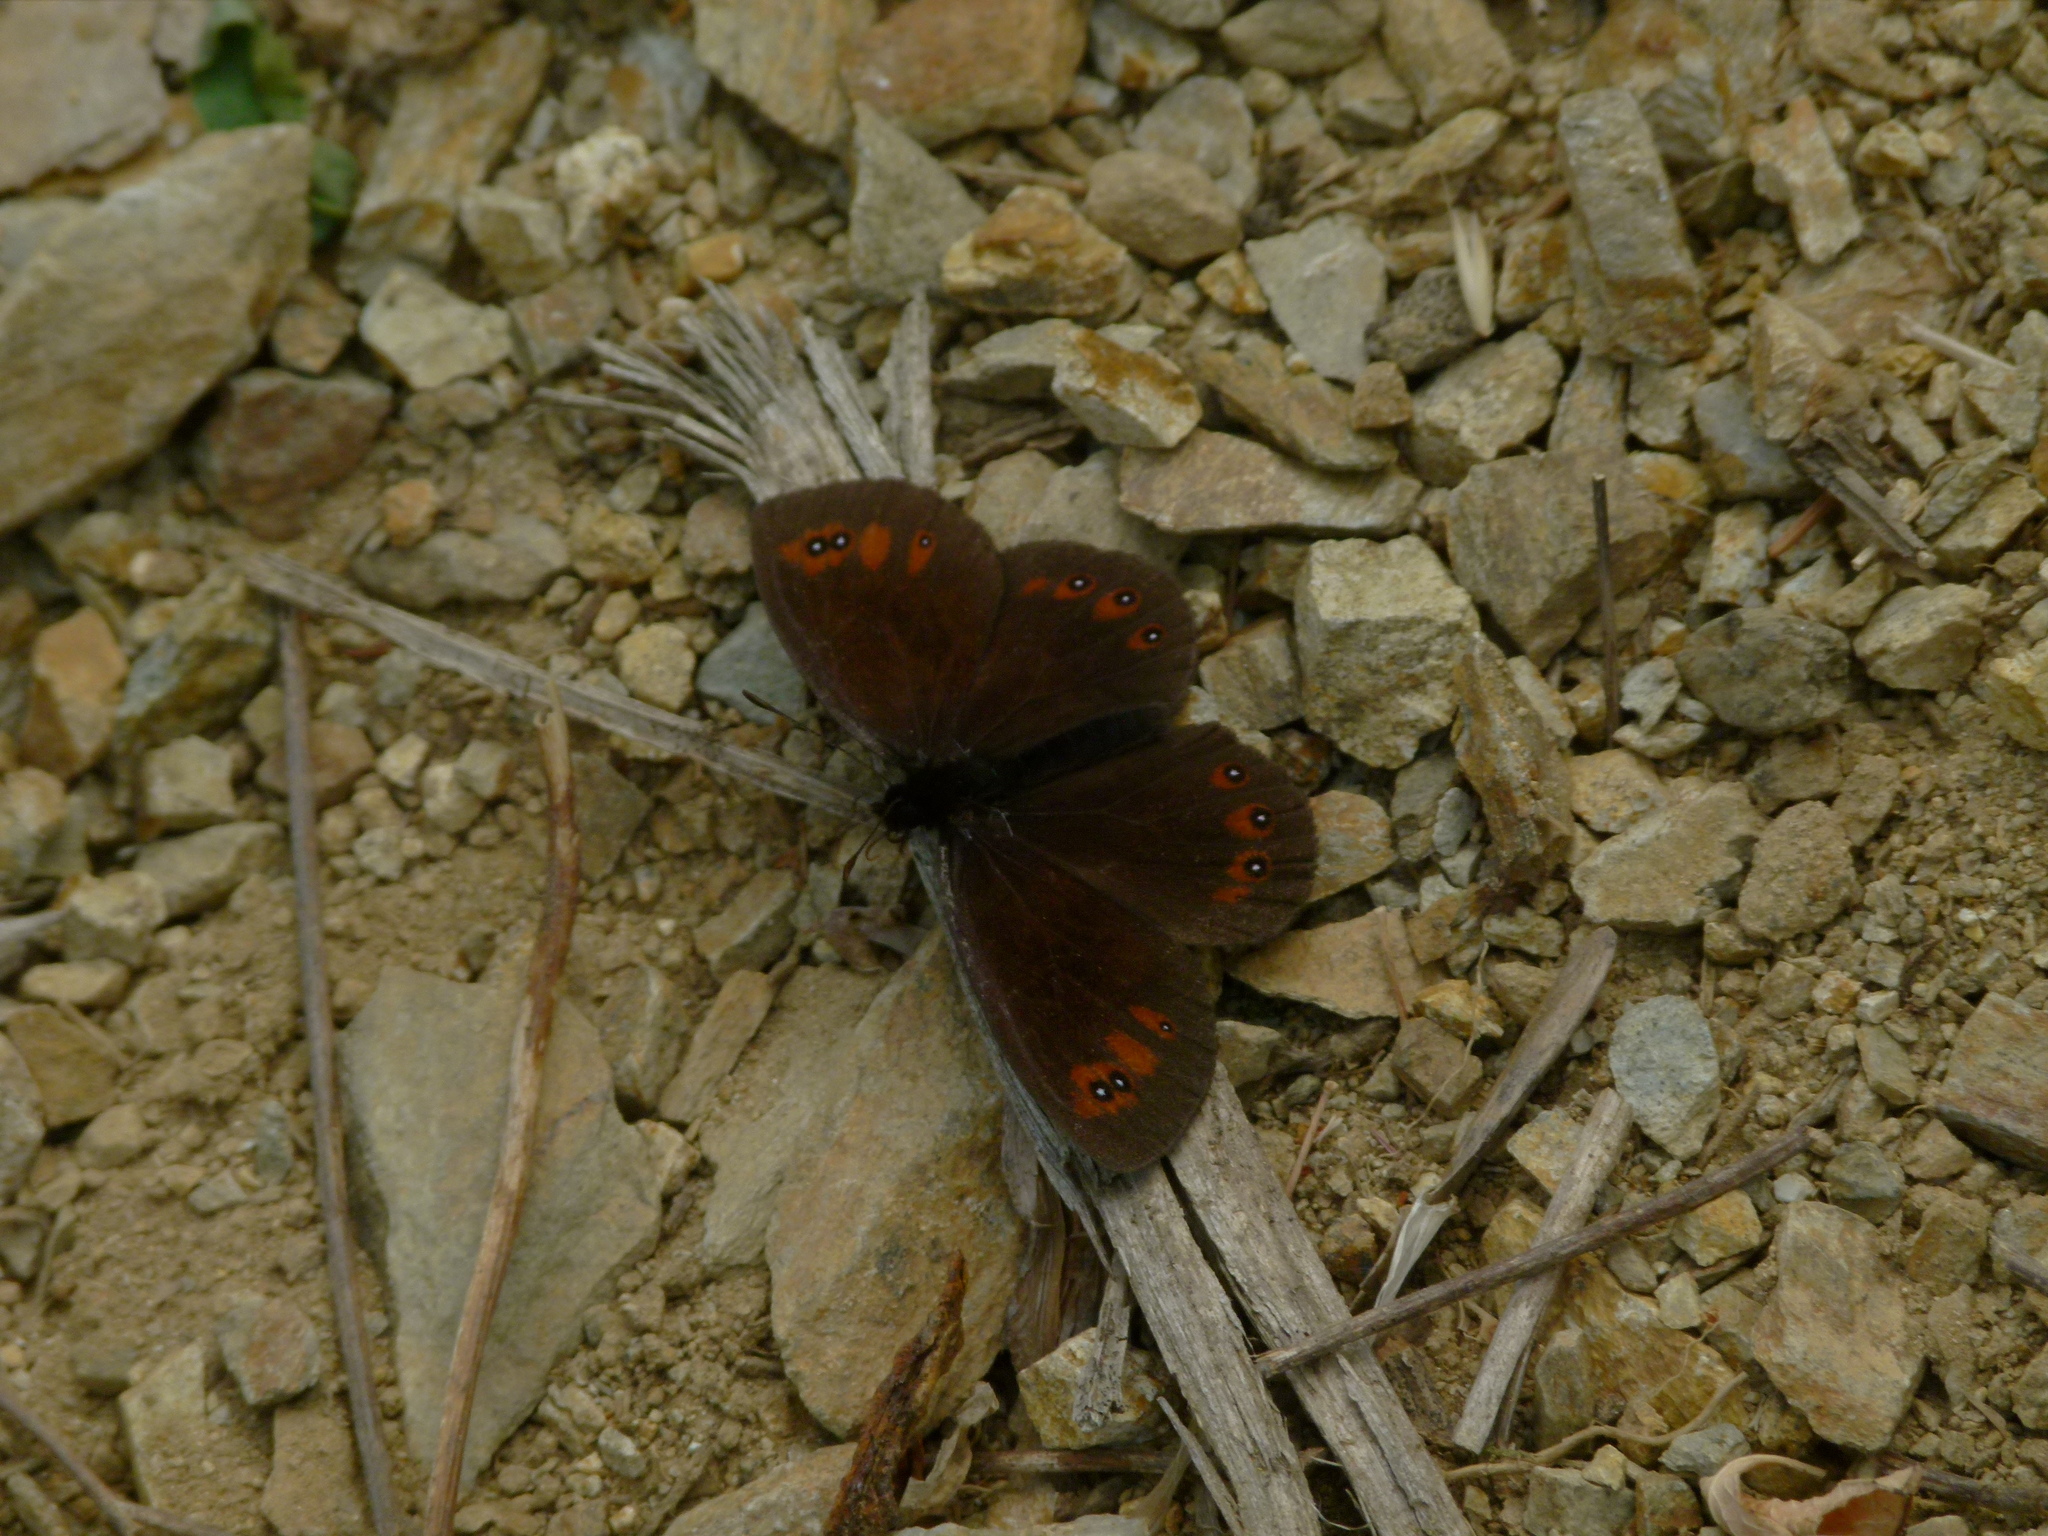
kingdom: Animalia
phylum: Arthropoda
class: Insecta
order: Lepidoptera
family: Nymphalidae
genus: Erebia
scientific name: Erebia meolans
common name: Piedmont ringlet
